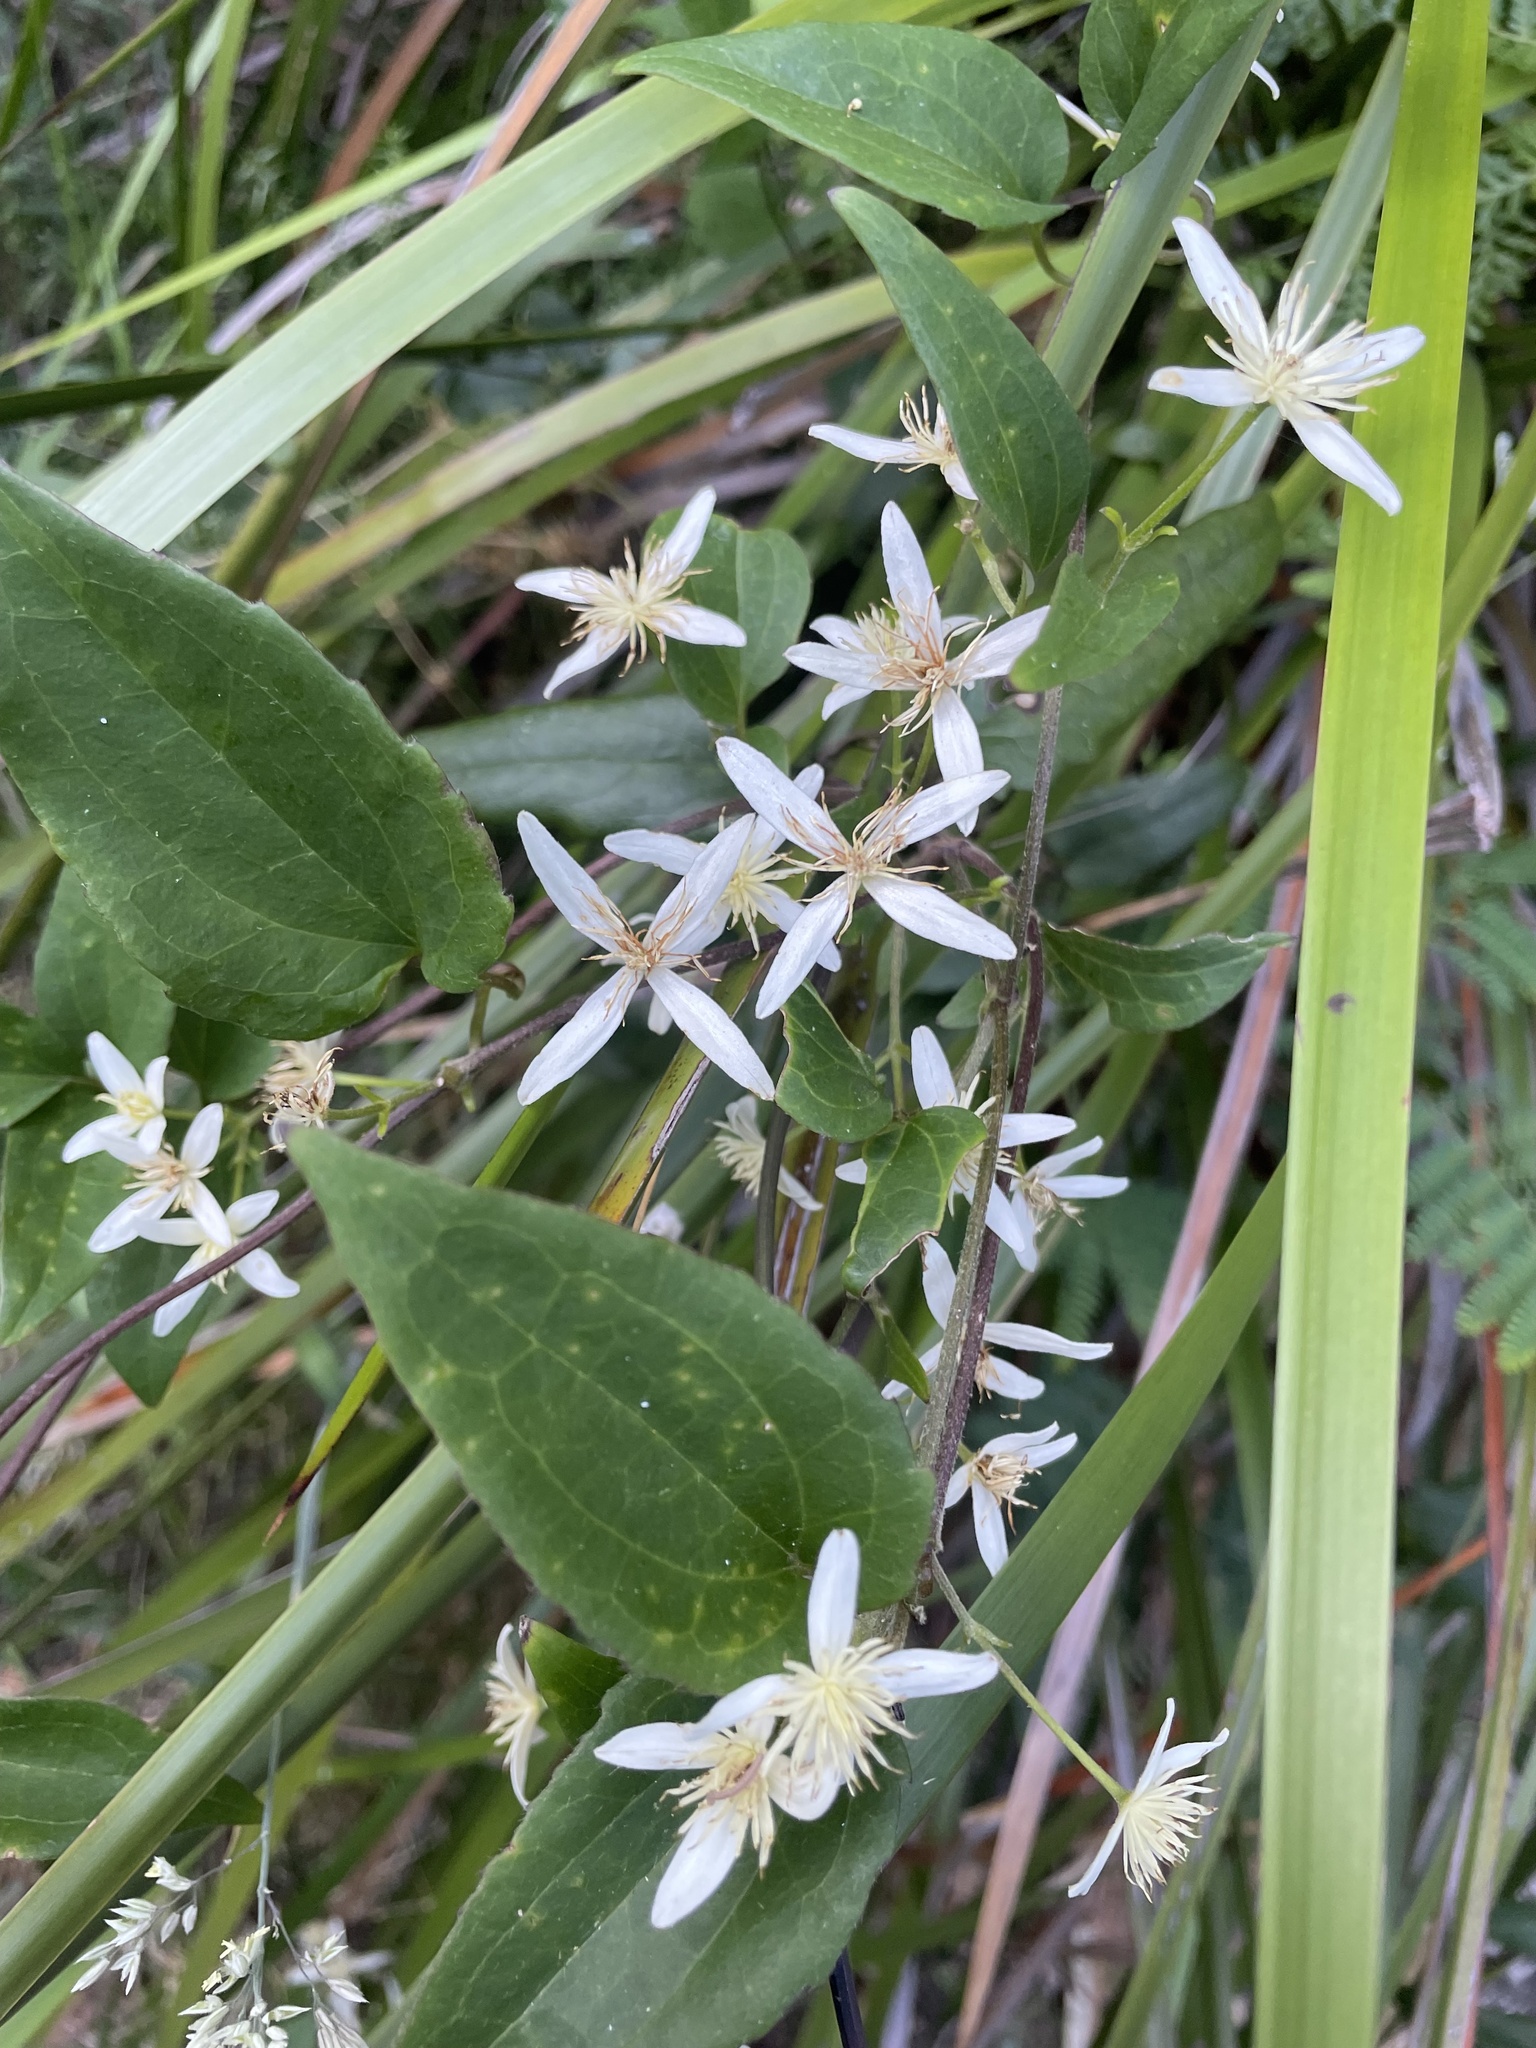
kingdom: Plantae
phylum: Tracheophyta
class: Magnoliopsida
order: Ranunculales
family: Ranunculaceae
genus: Clematis
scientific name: Clematis aristata
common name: Mountain clematis
